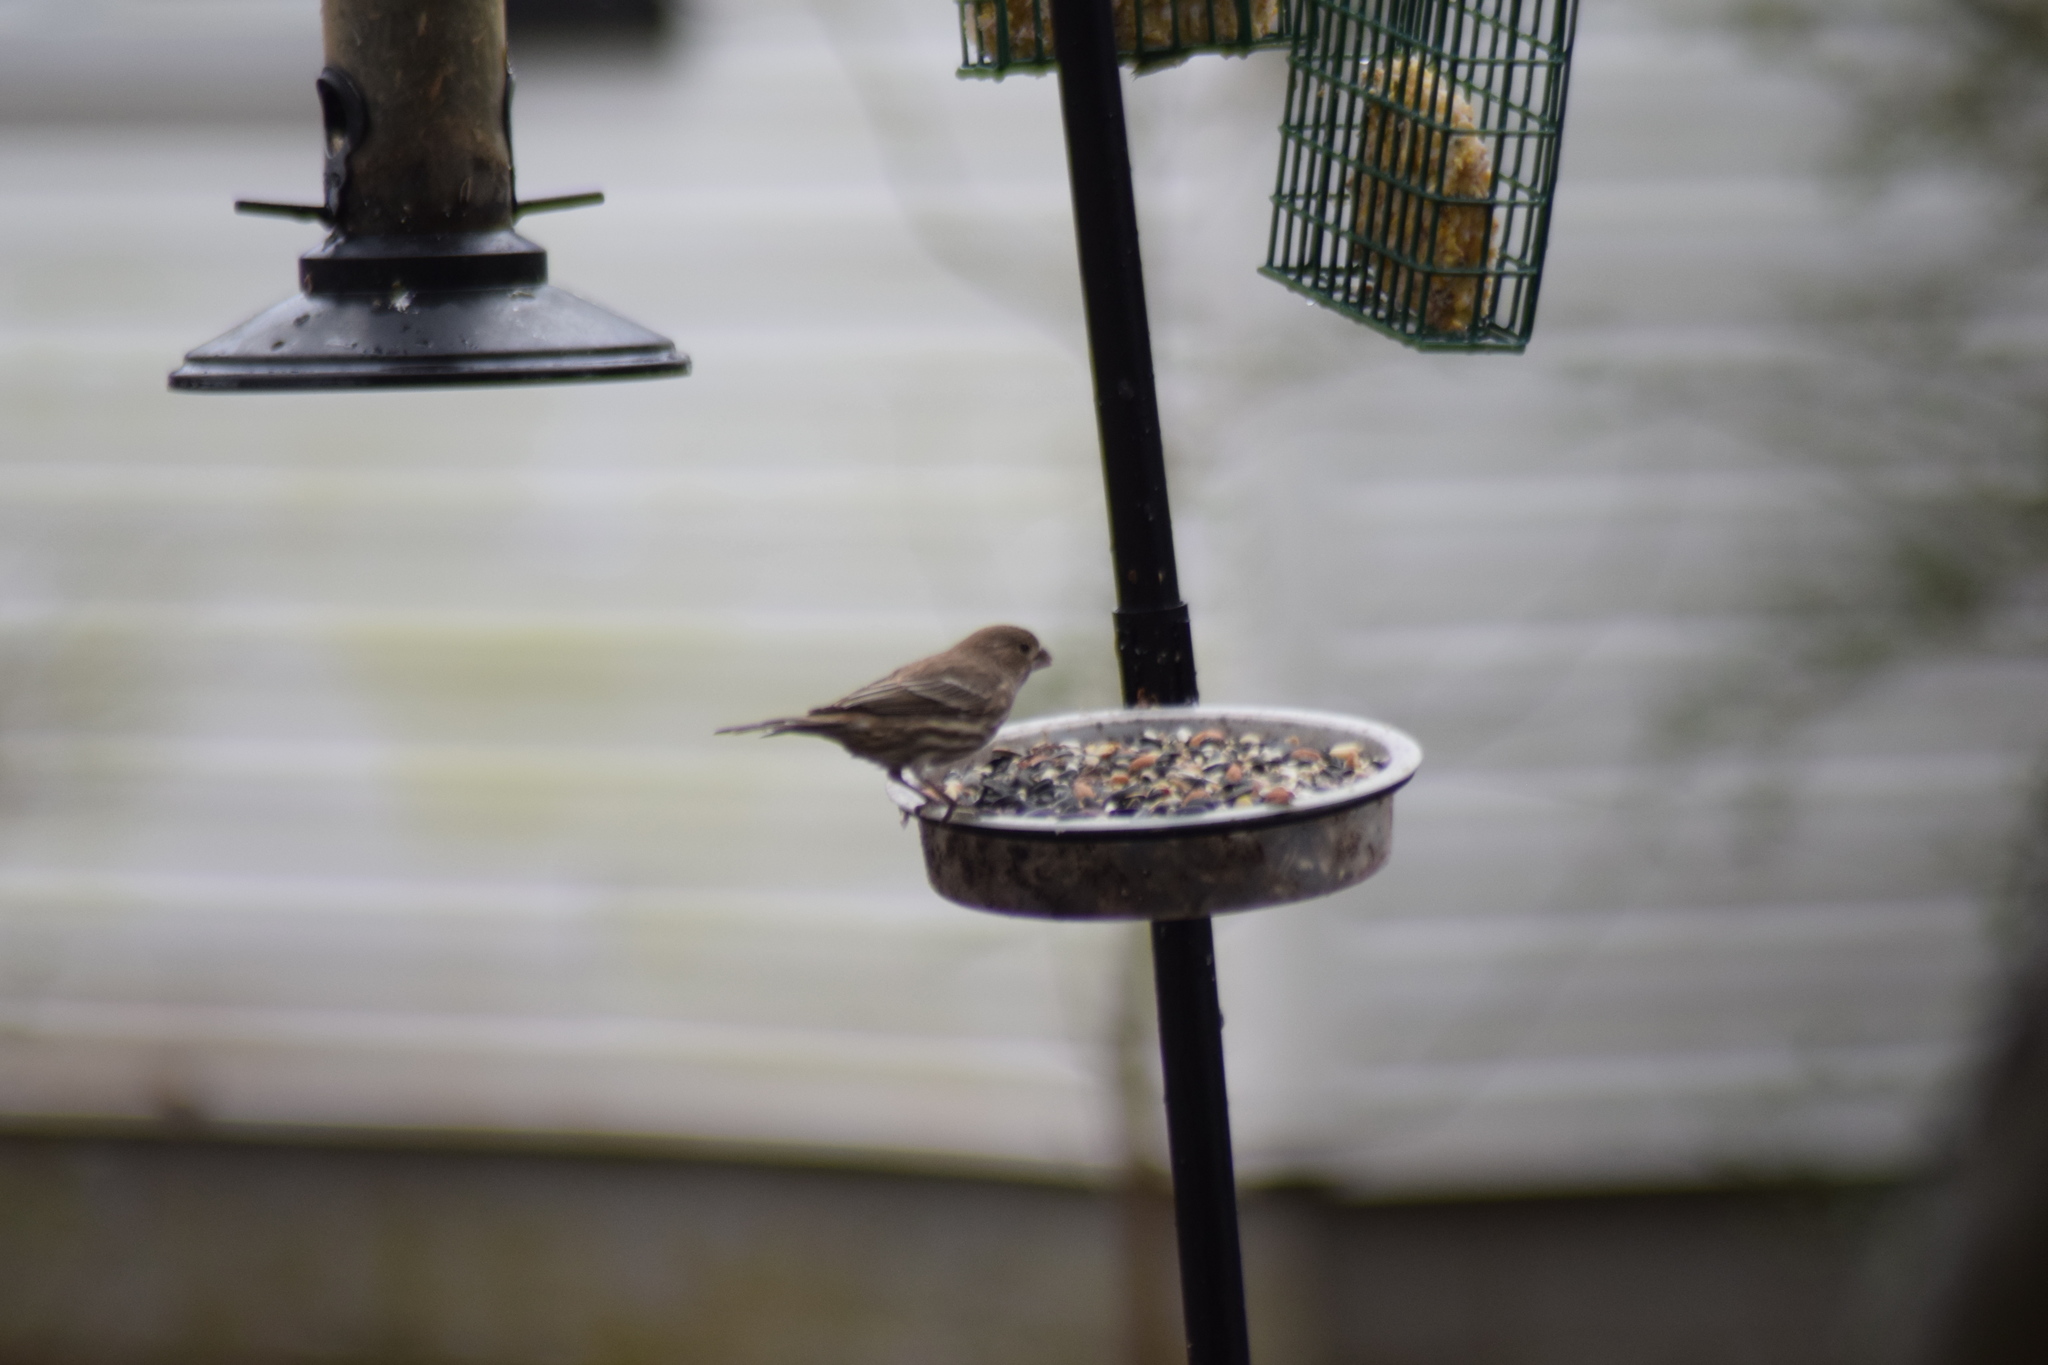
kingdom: Animalia
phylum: Chordata
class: Aves
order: Passeriformes
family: Fringillidae
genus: Haemorhous
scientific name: Haemorhous mexicanus
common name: House finch
